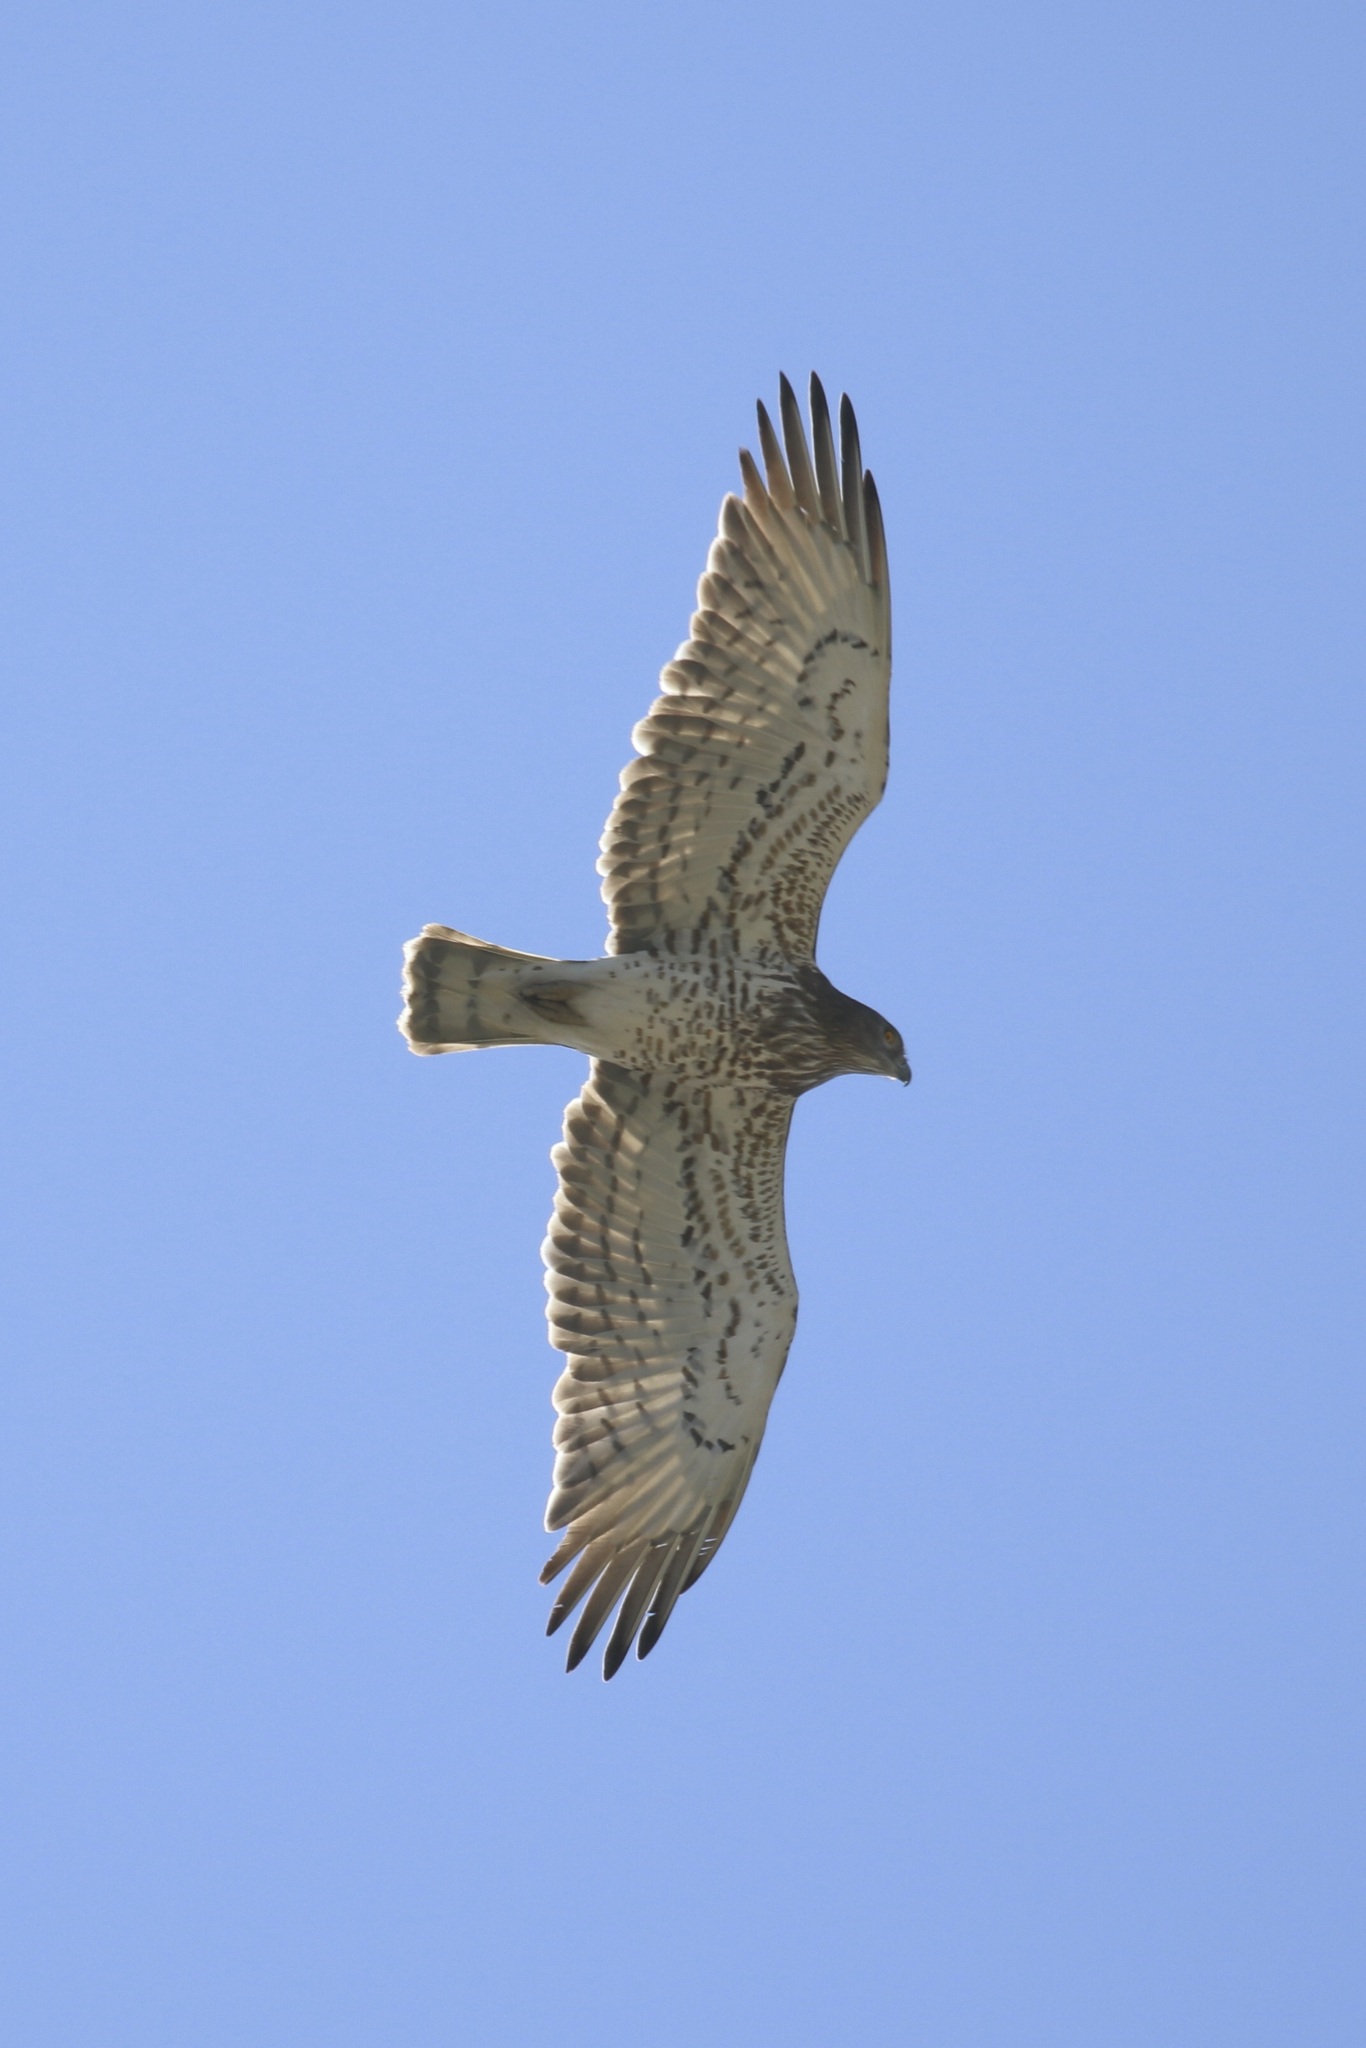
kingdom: Animalia
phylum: Chordata
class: Aves
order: Accipitriformes
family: Accipitridae
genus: Circaetus
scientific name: Circaetus gallicus
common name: Short-toed snake eagle
